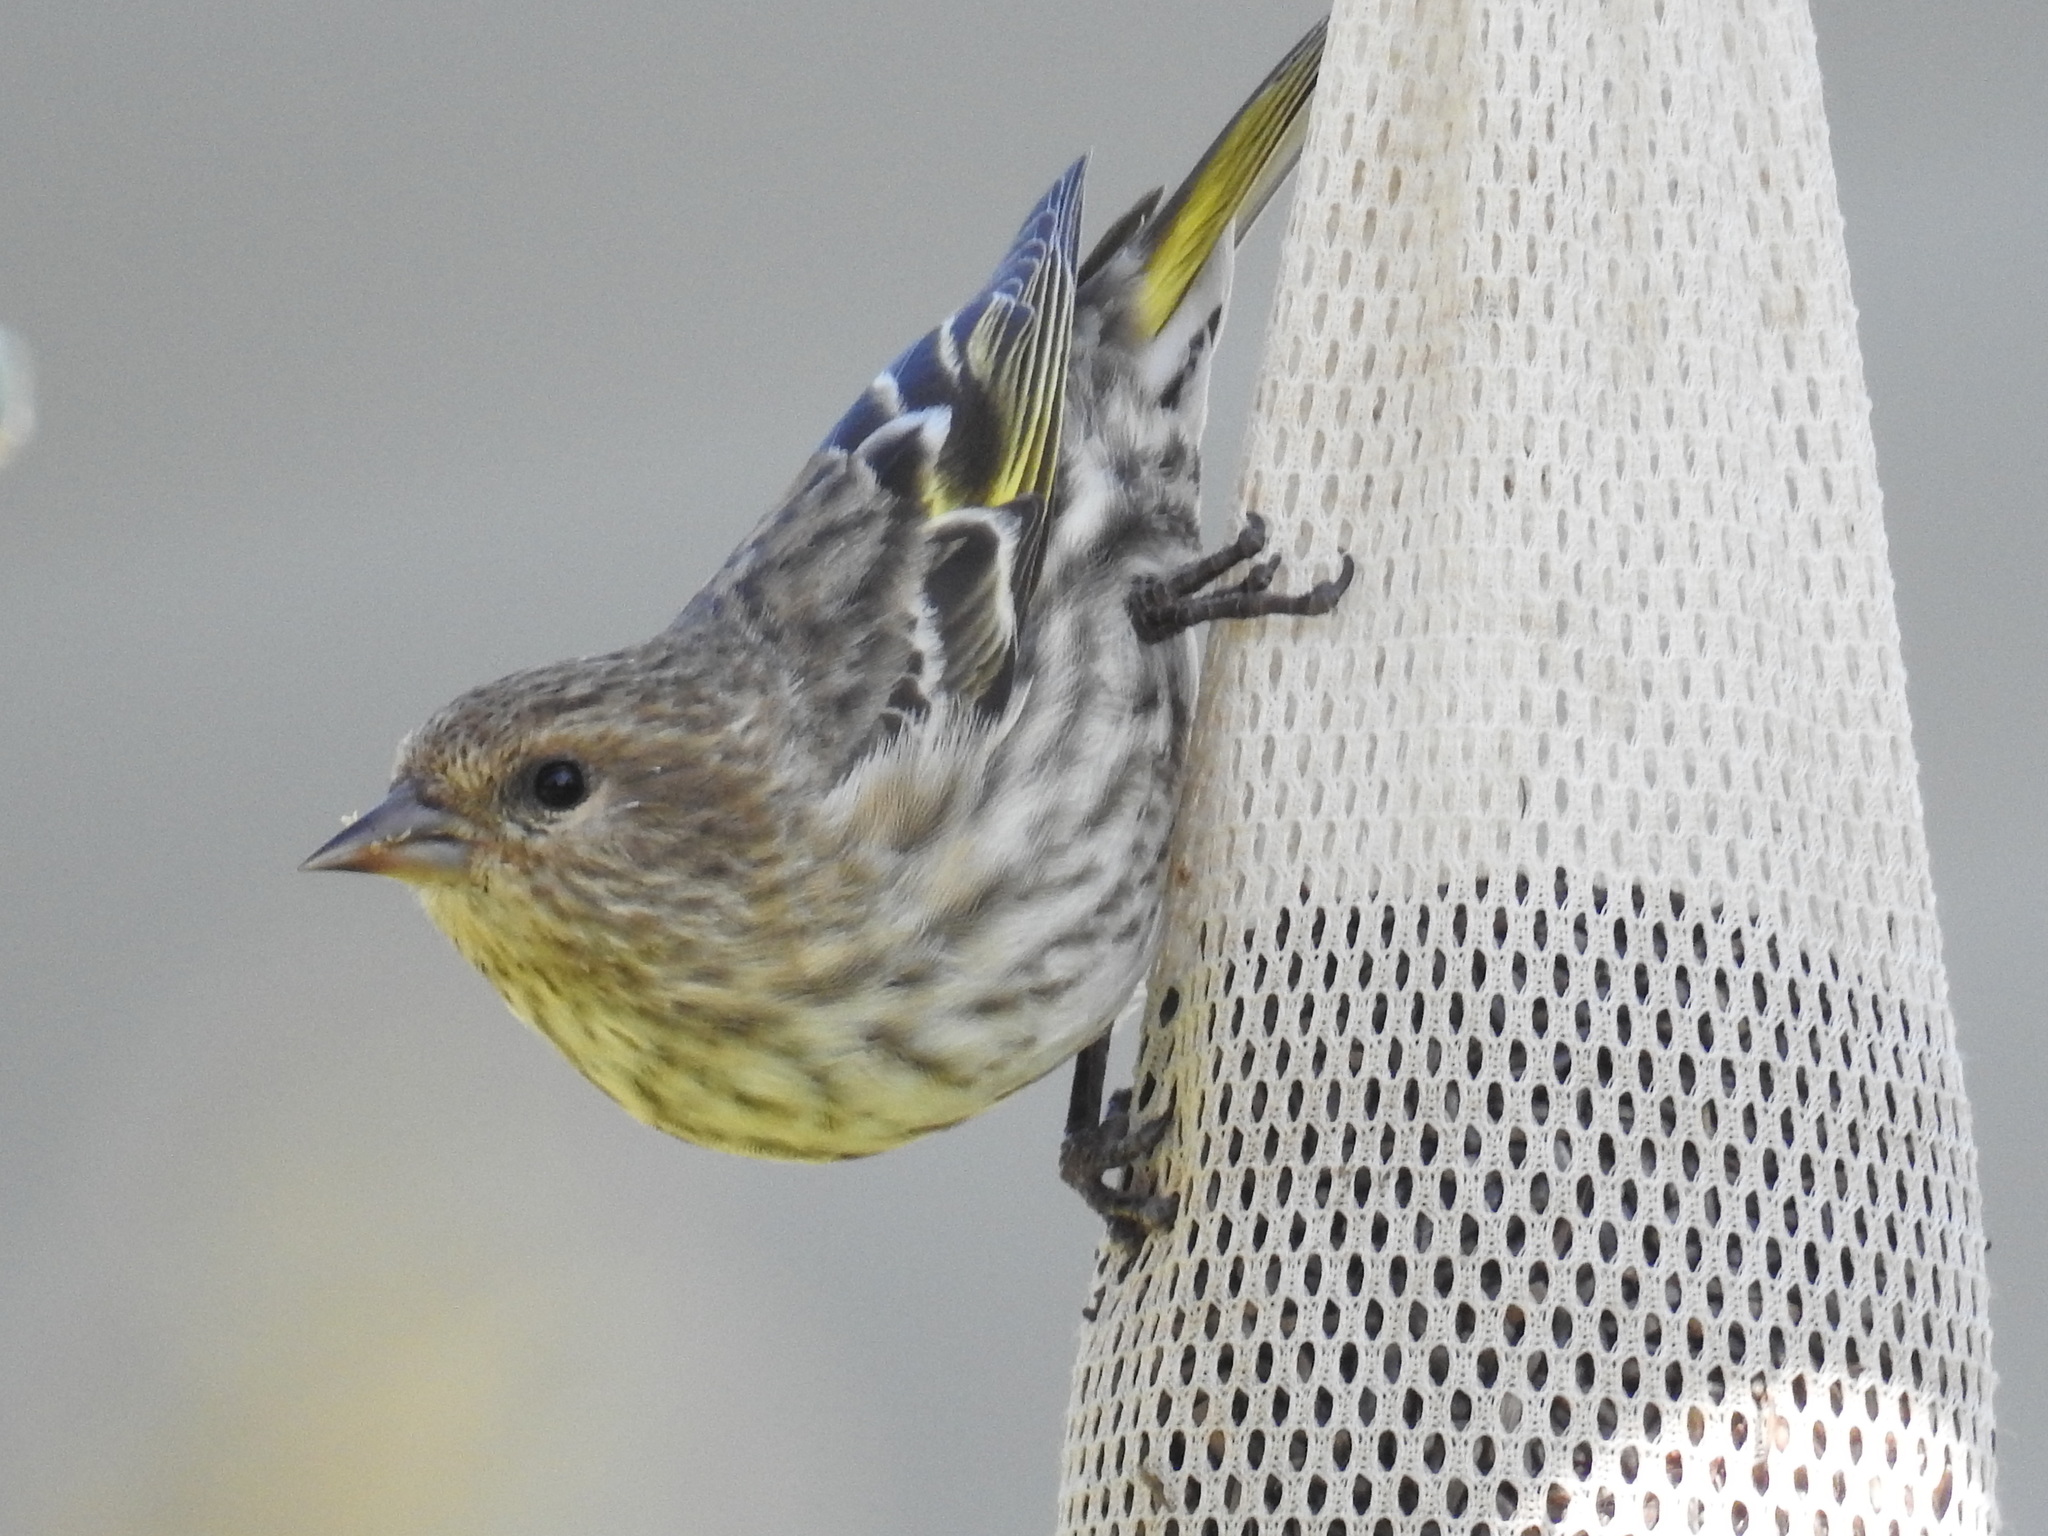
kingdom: Animalia
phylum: Chordata
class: Aves
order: Passeriformes
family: Fringillidae
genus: Spinus
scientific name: Spinus pinus
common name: Pine siskin
